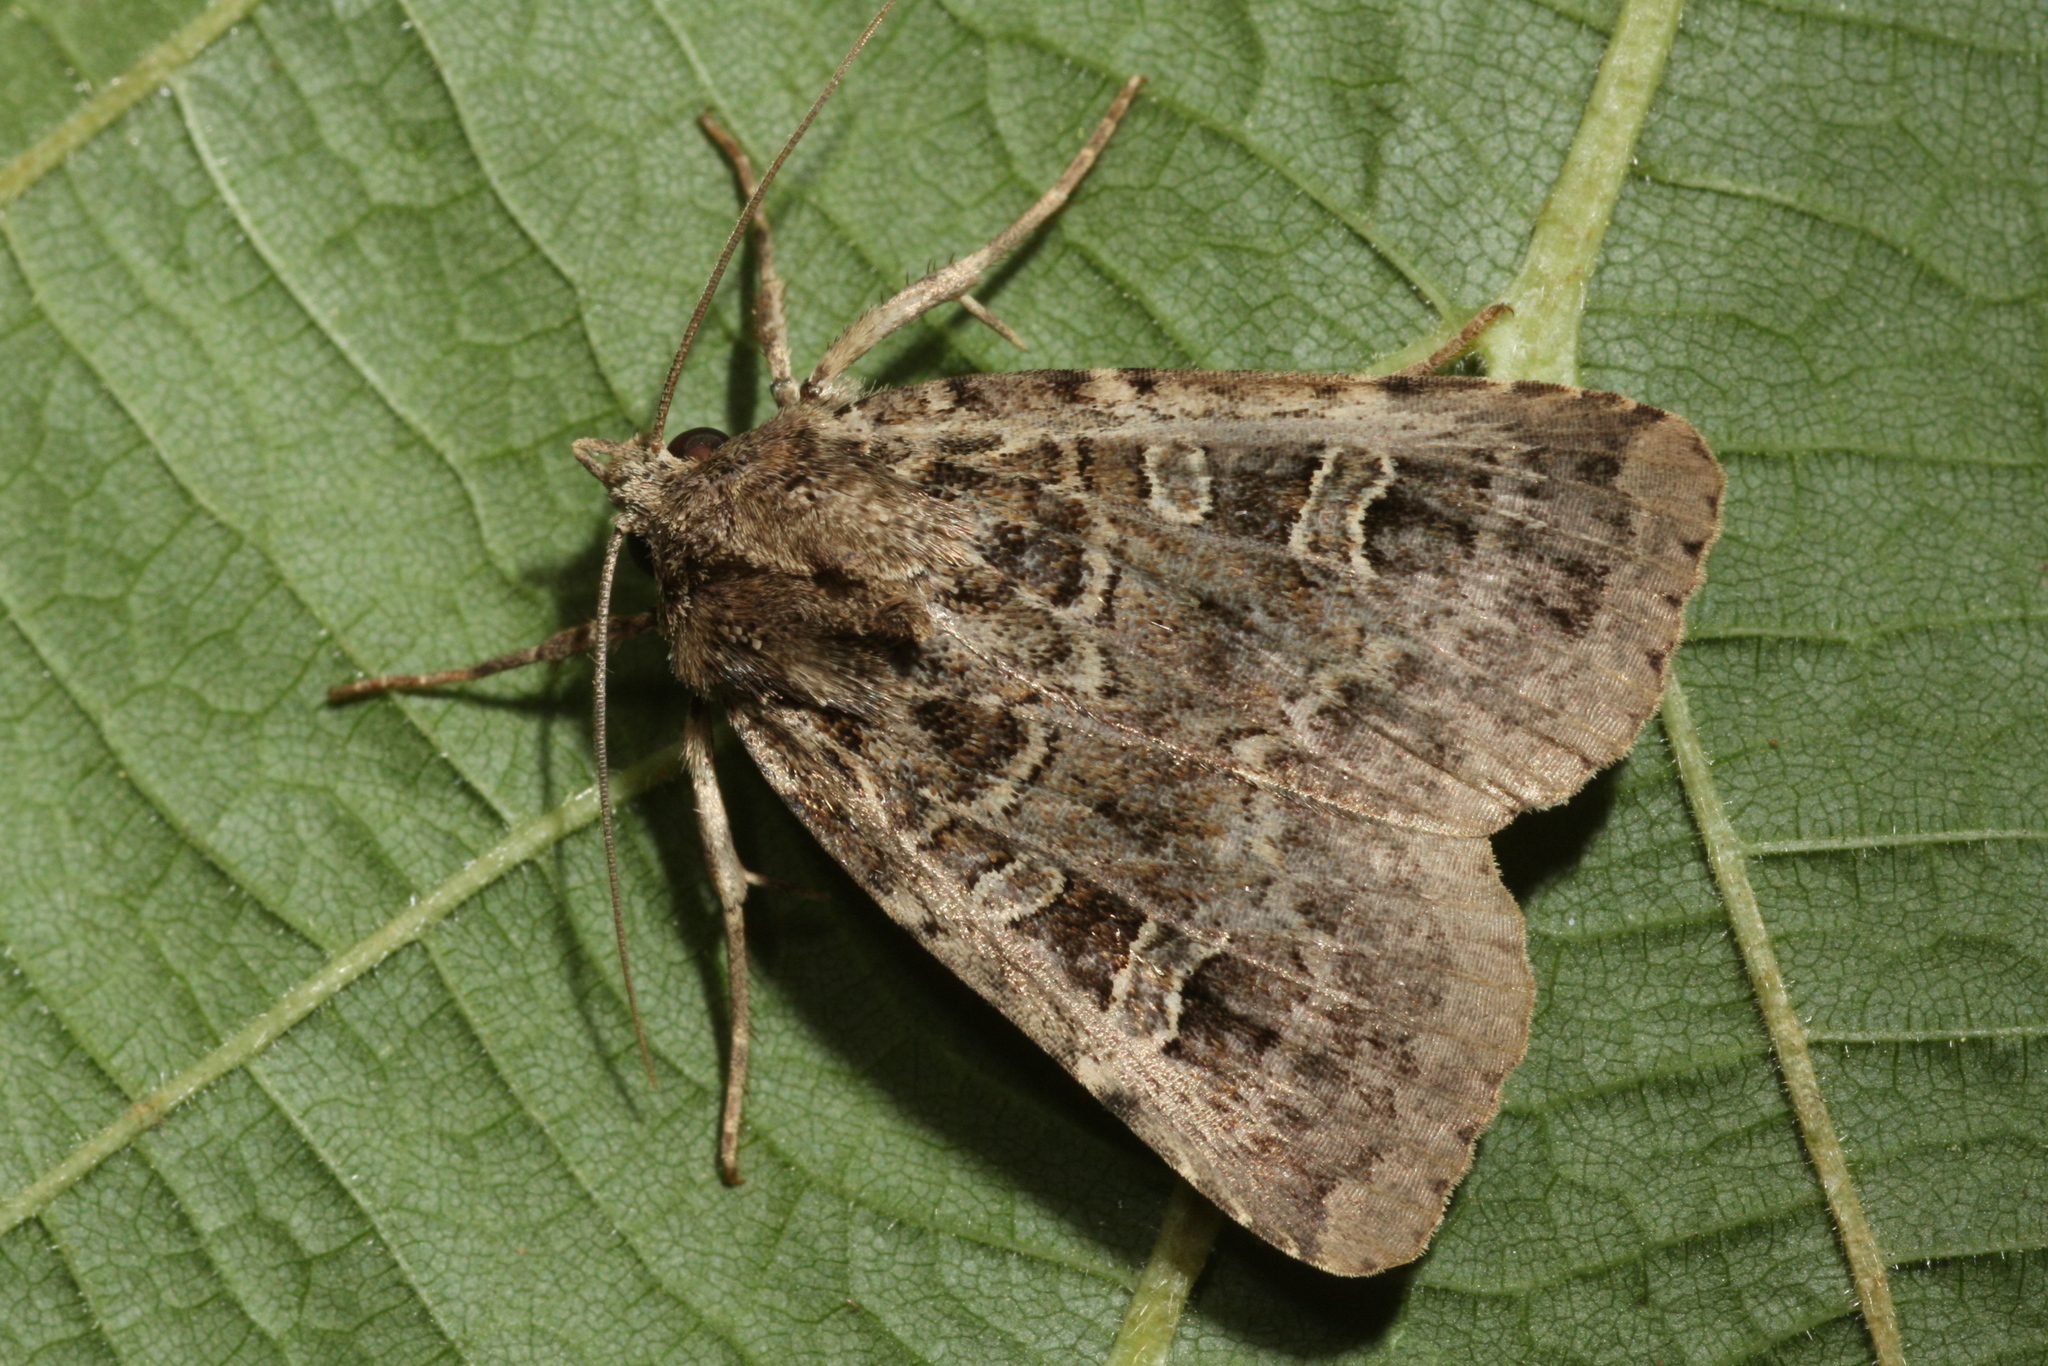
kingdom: Animalia
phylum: Arthropoda
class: Insecta
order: Lepidoptera
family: Noctuidae
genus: Naenia
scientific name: Naenia typica
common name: Gothic
